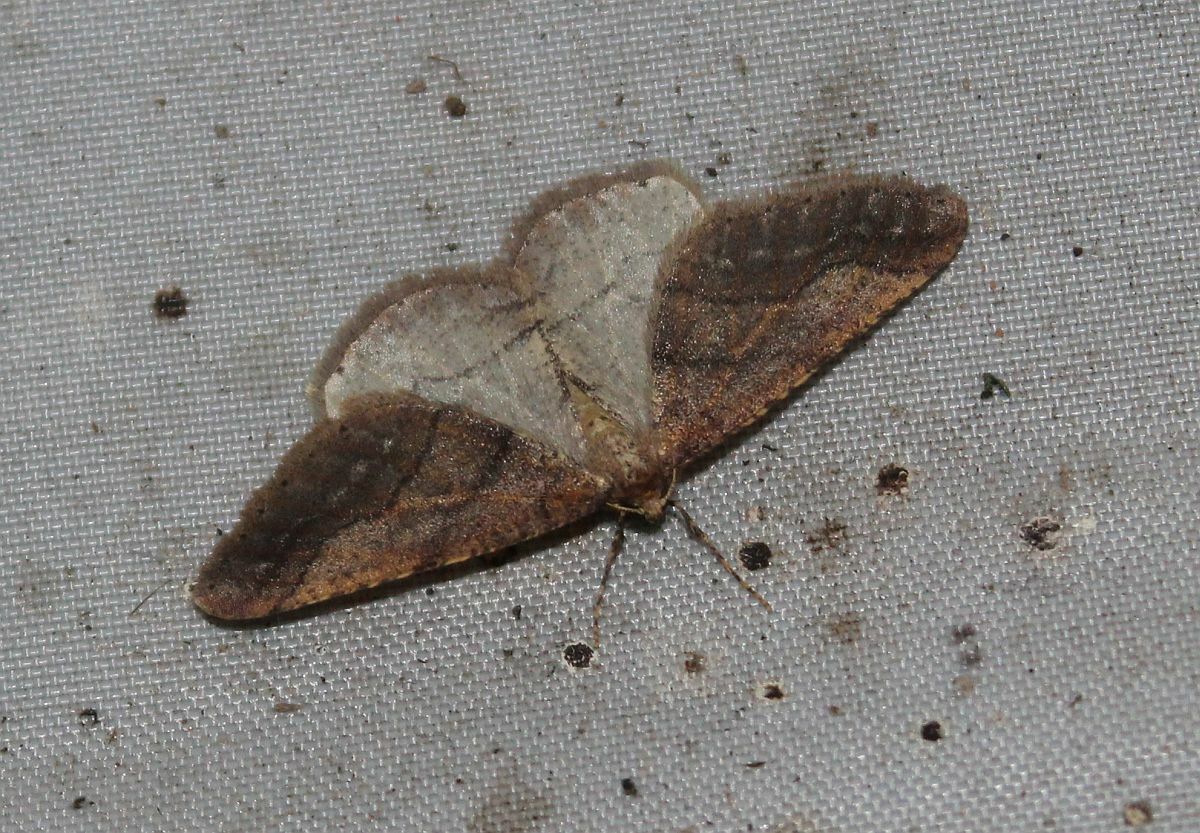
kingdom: Animalia
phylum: Arthropoda
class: Insecta
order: Lepidoptera
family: Geometridae
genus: Agriopis
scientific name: Agriopis marginaria
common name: Dotted border
